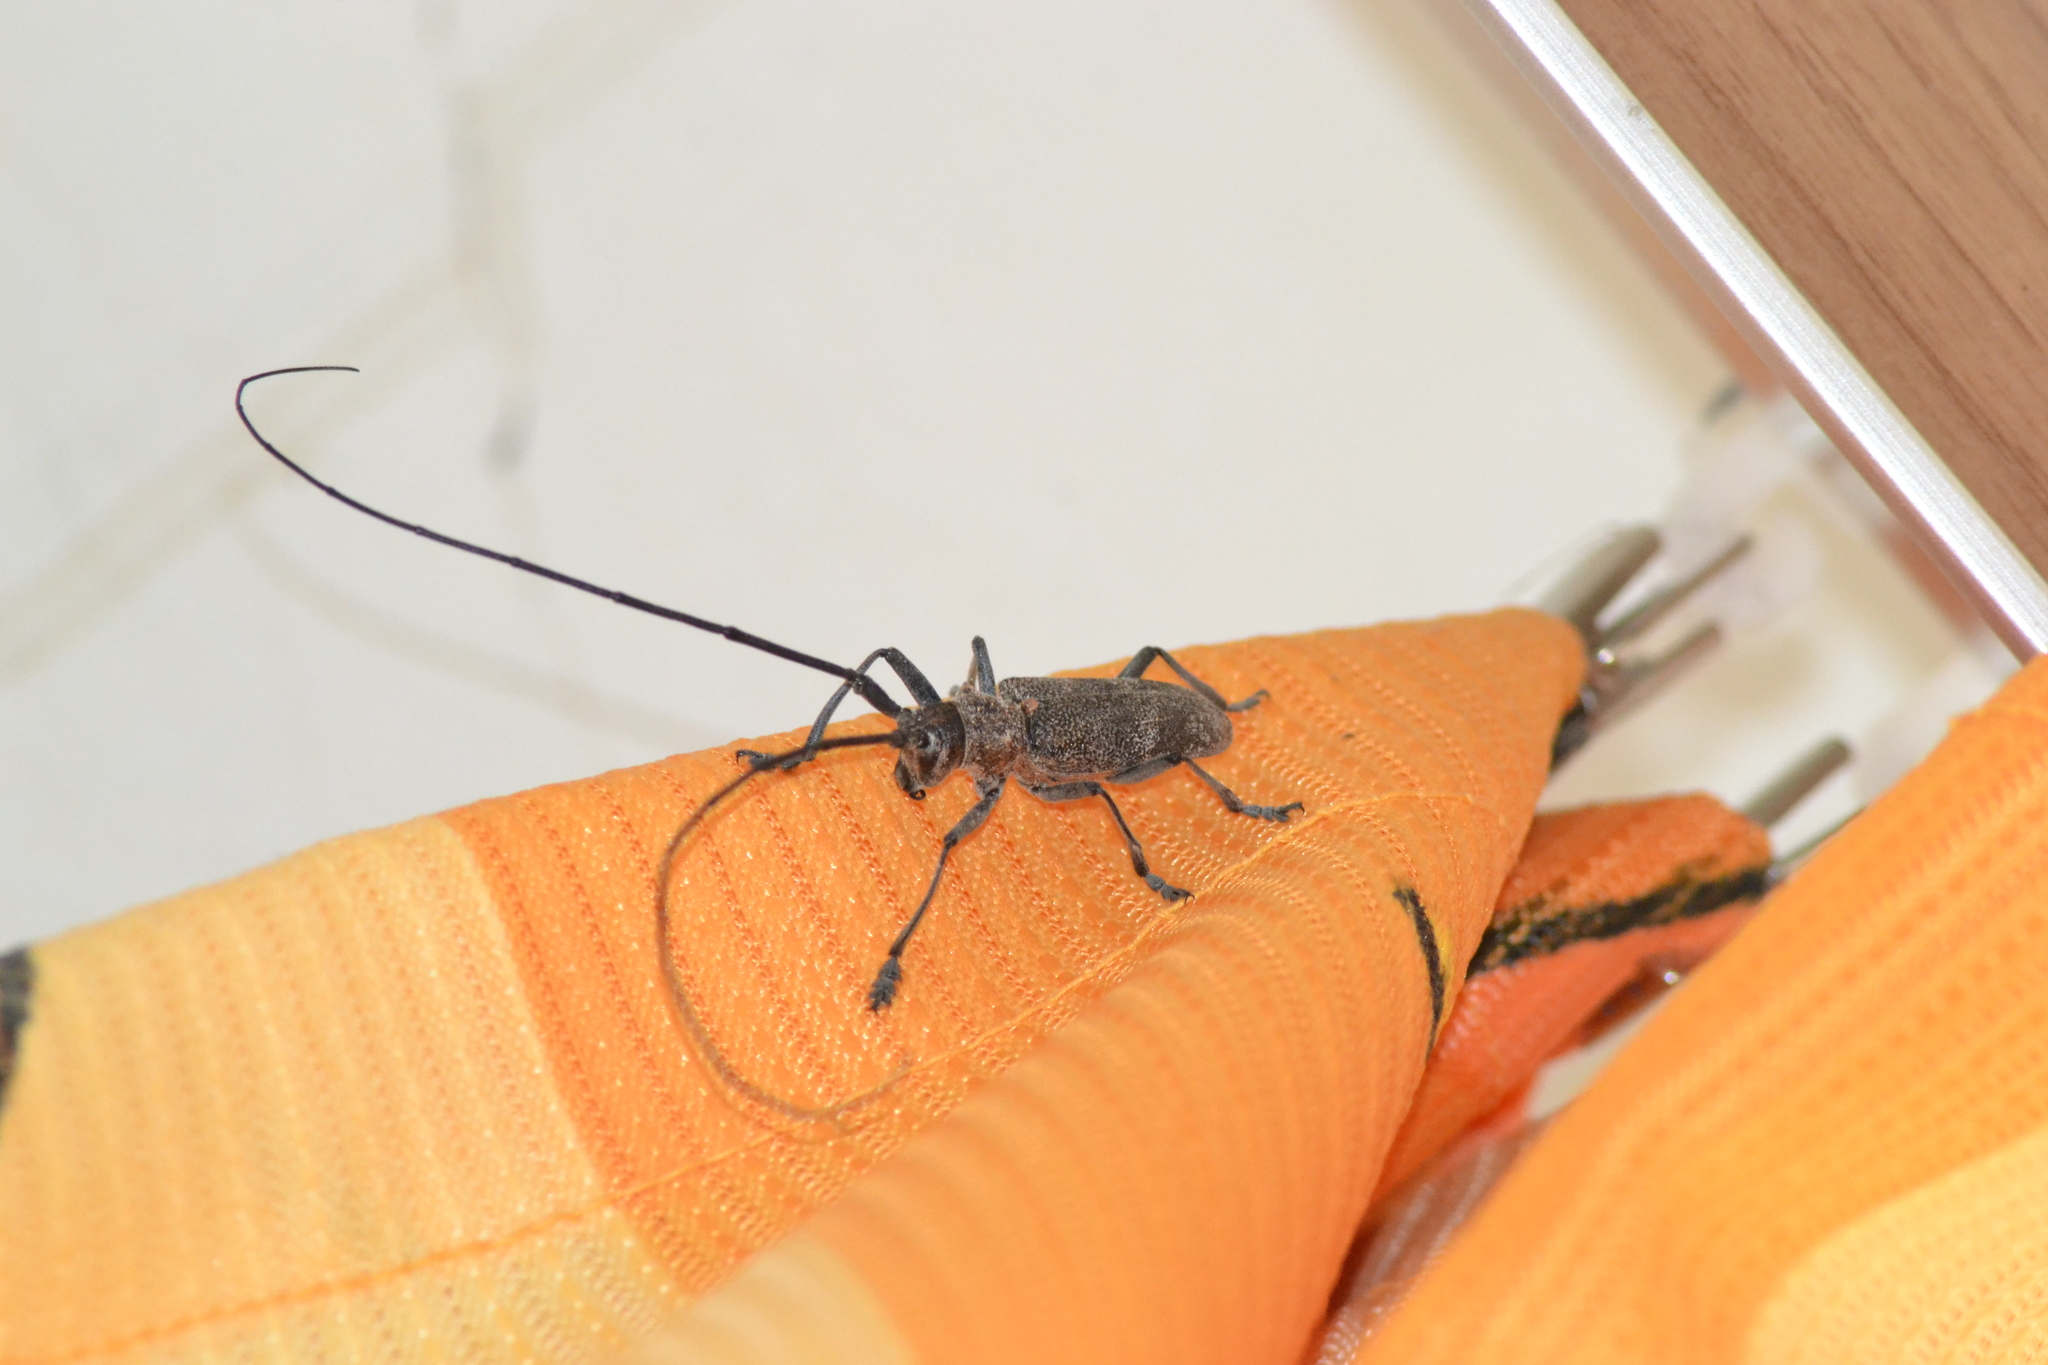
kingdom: Animalia
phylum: Arthropoda
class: Insecta
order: Coleoptera
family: Cerambycidae
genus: Monochamus
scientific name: Monochamus galloprovincialis
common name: Pine sawyer
